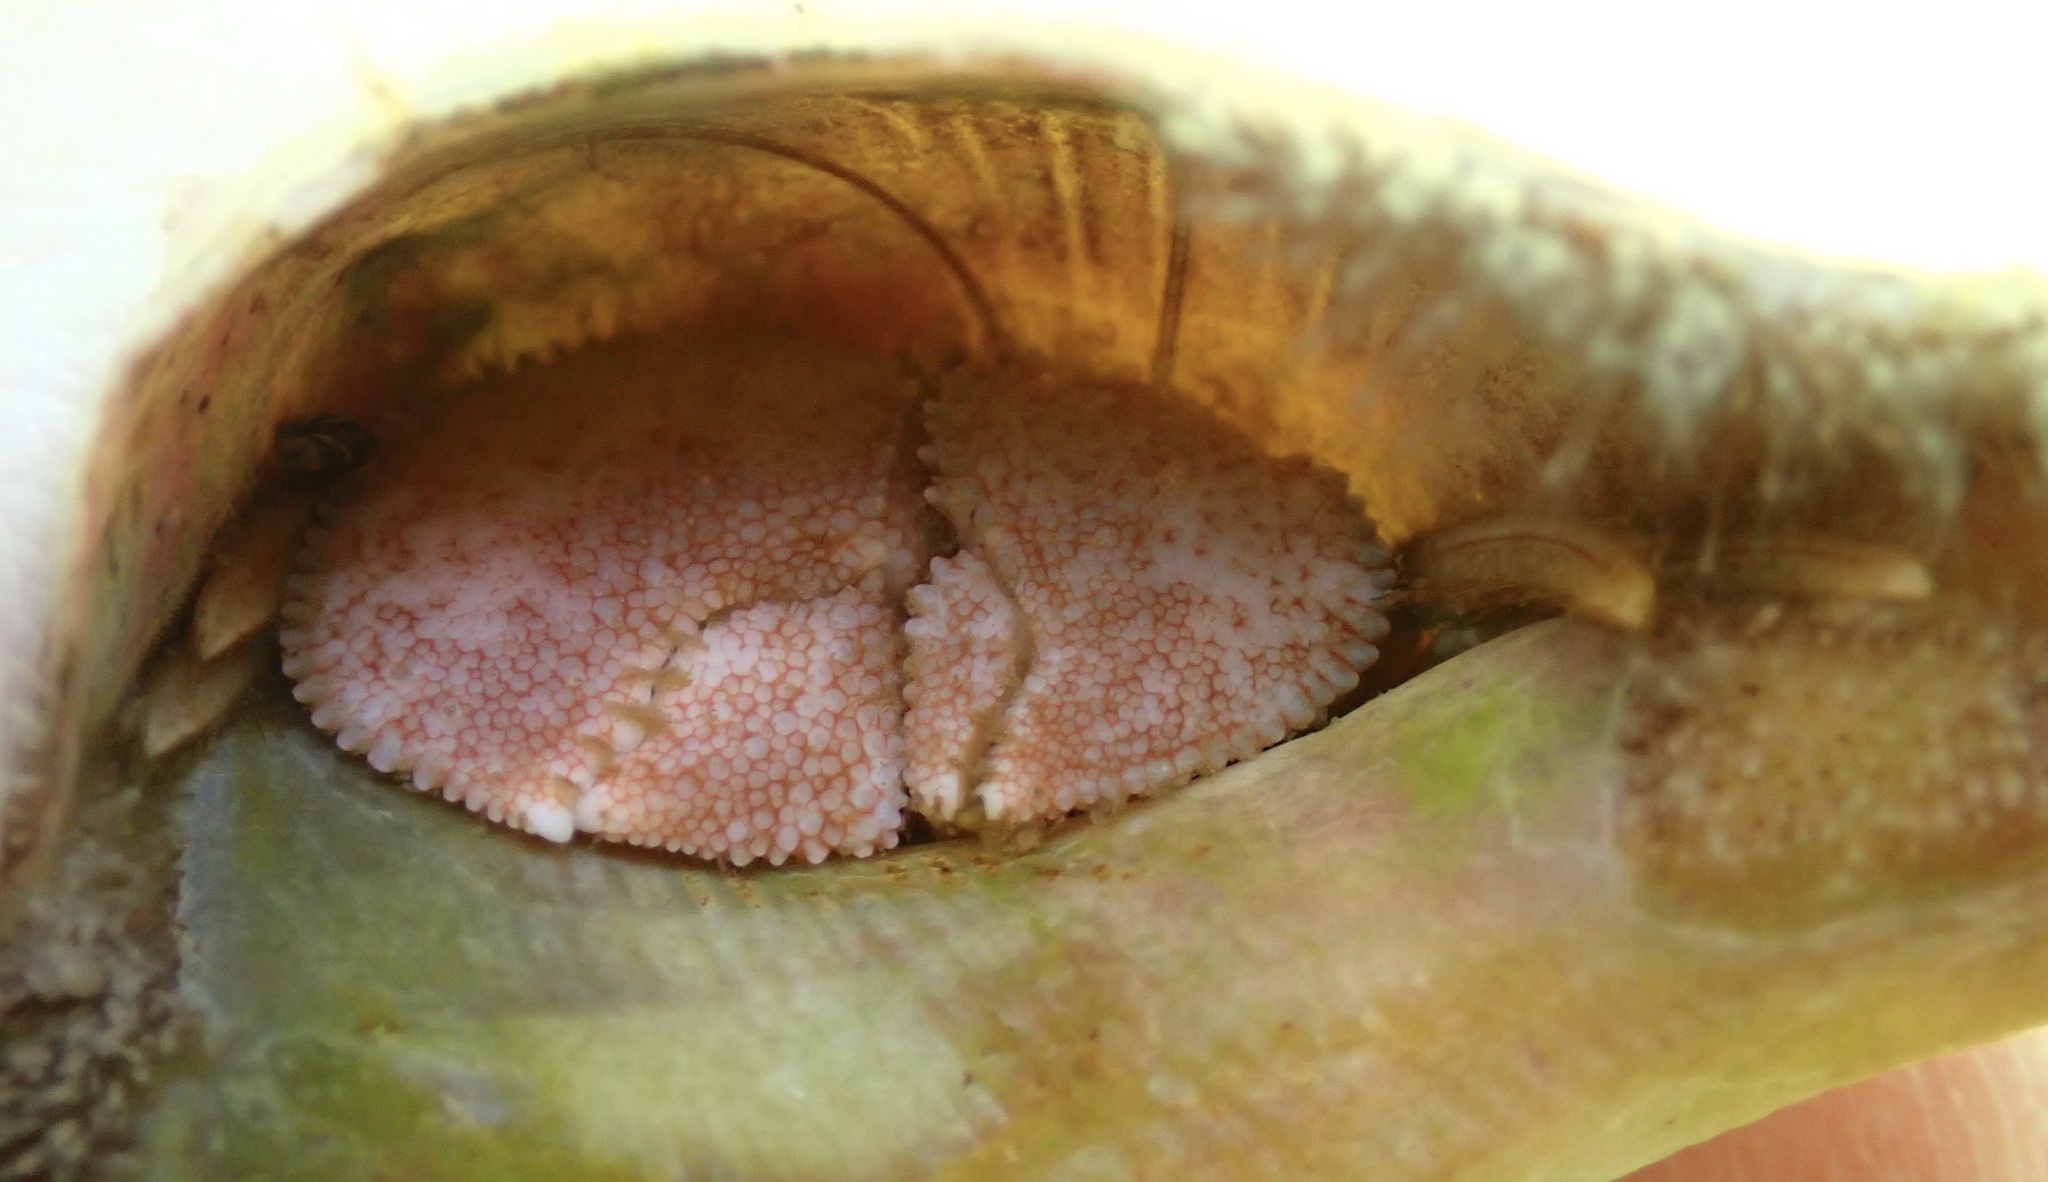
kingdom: Animalia
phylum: Arthropoda
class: Malacostraca
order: Decapoda
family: Paguridae
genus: Pagurus
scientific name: Pagurus pollicaris
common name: Flatclaw hermit
